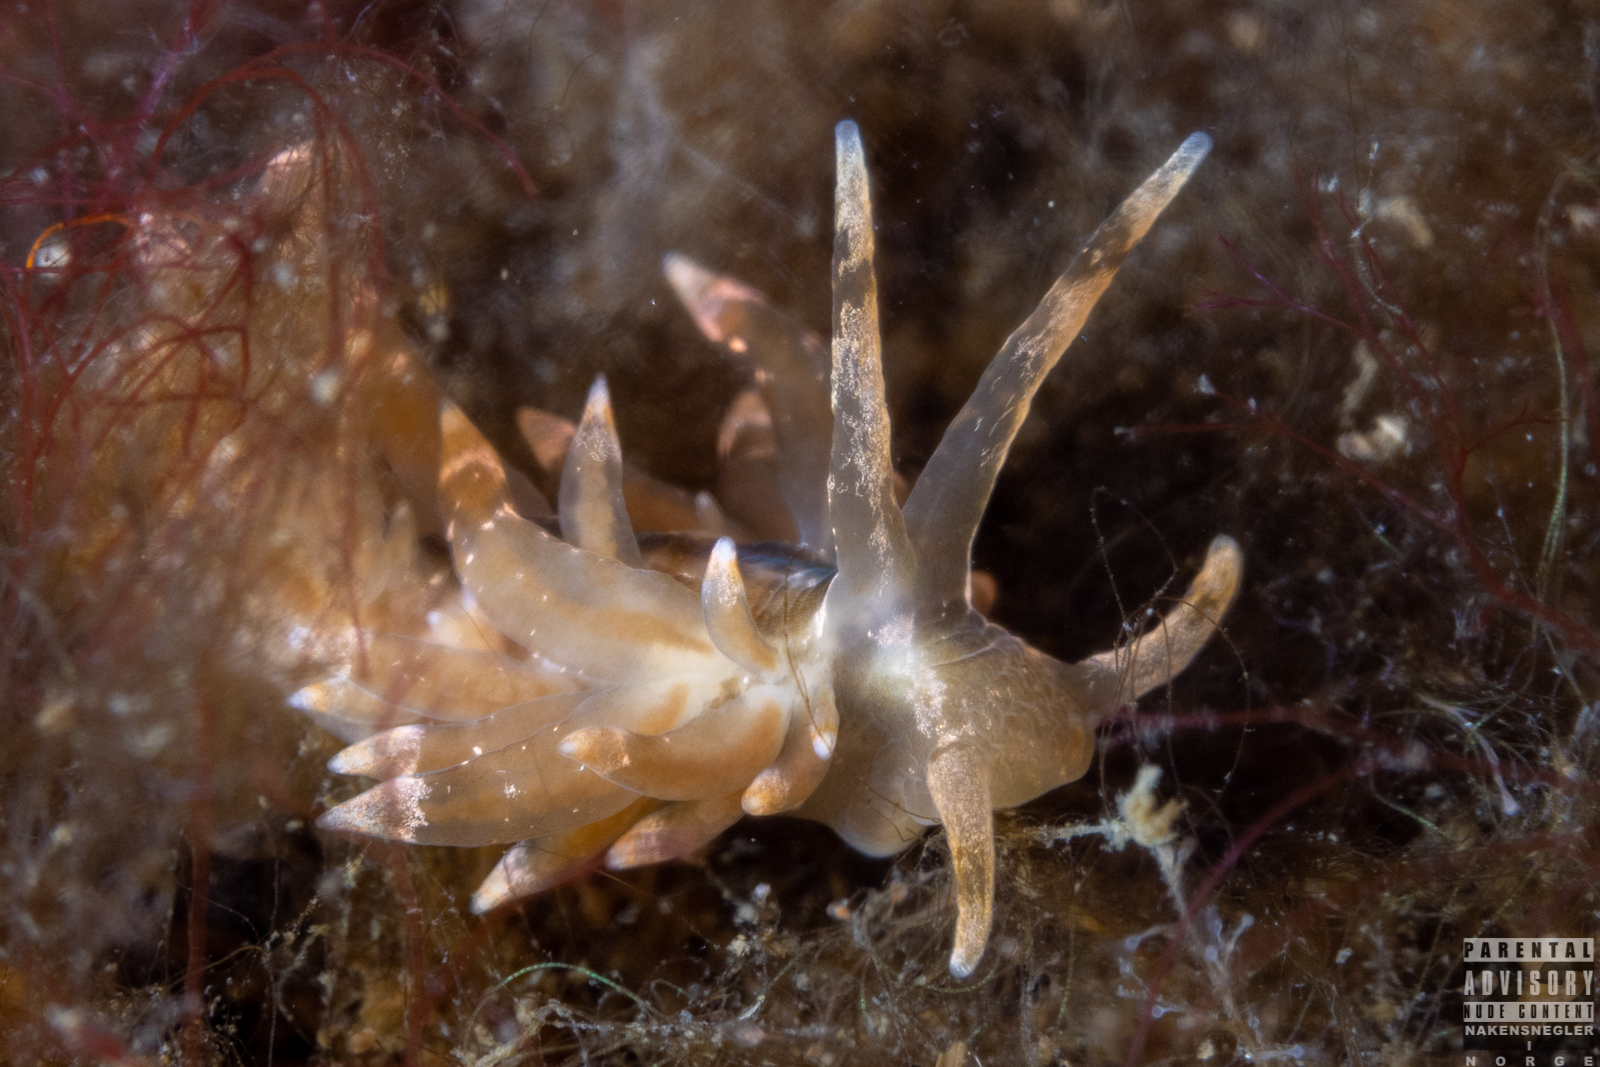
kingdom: Animalia
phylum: Mollusca
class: Gastropoda
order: Nudibranchia
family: Eubranchidae
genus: Amphorina
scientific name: Amphorina viriola
